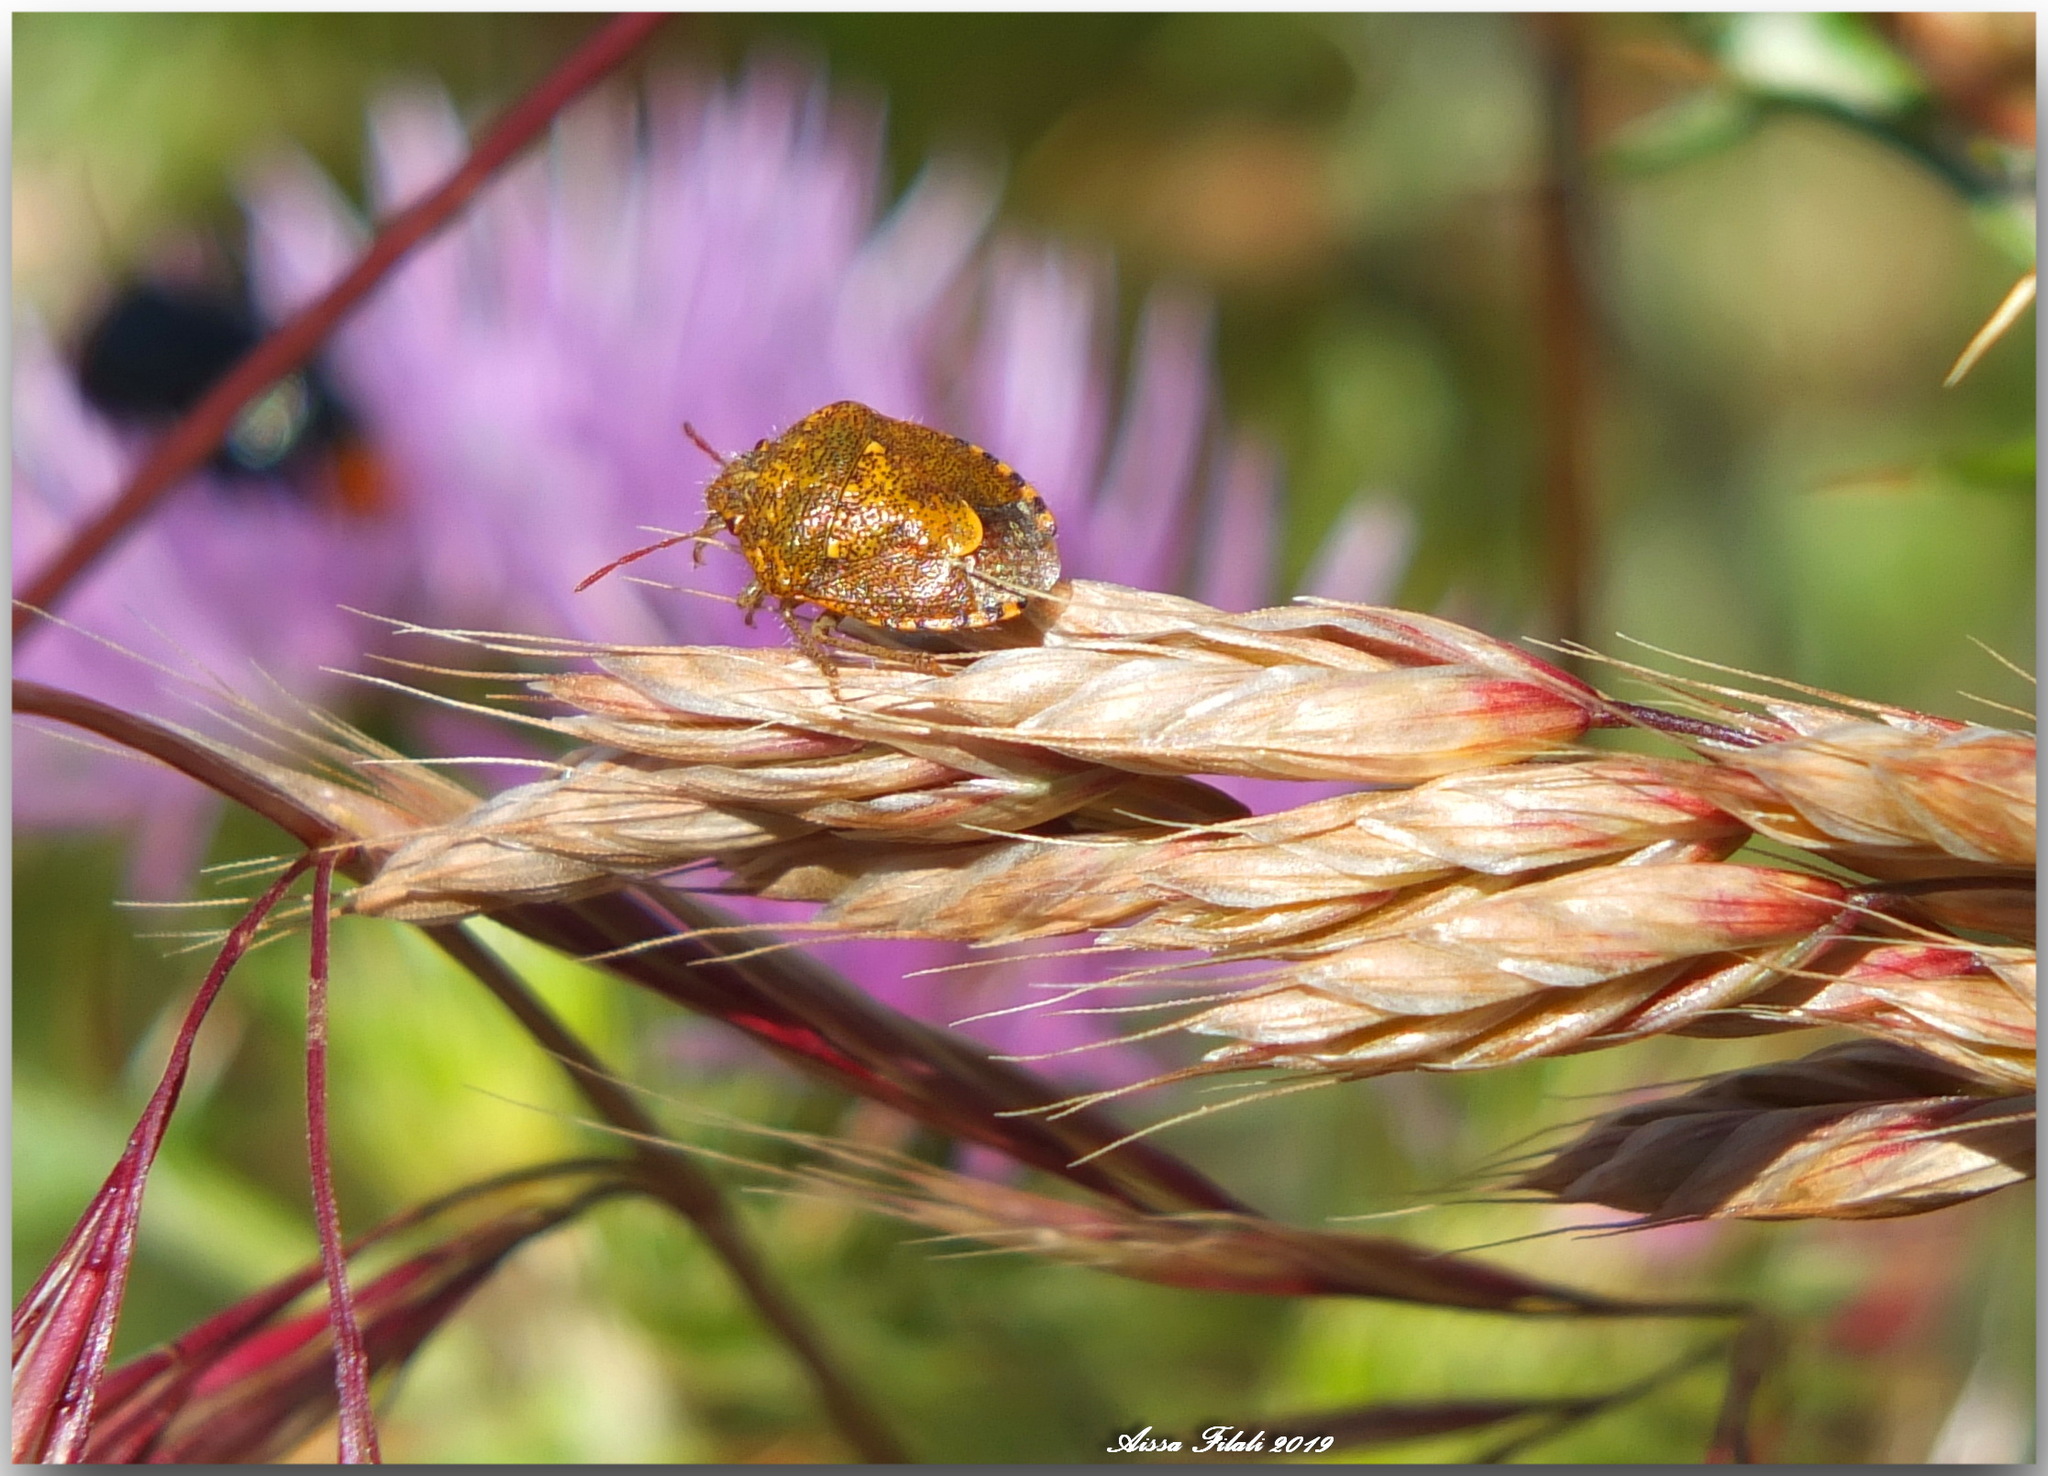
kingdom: Animalia
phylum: Arthropoda
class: Insecta
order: Hemiptera
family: Pentatomidae
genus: Staria
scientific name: Staria lunata
